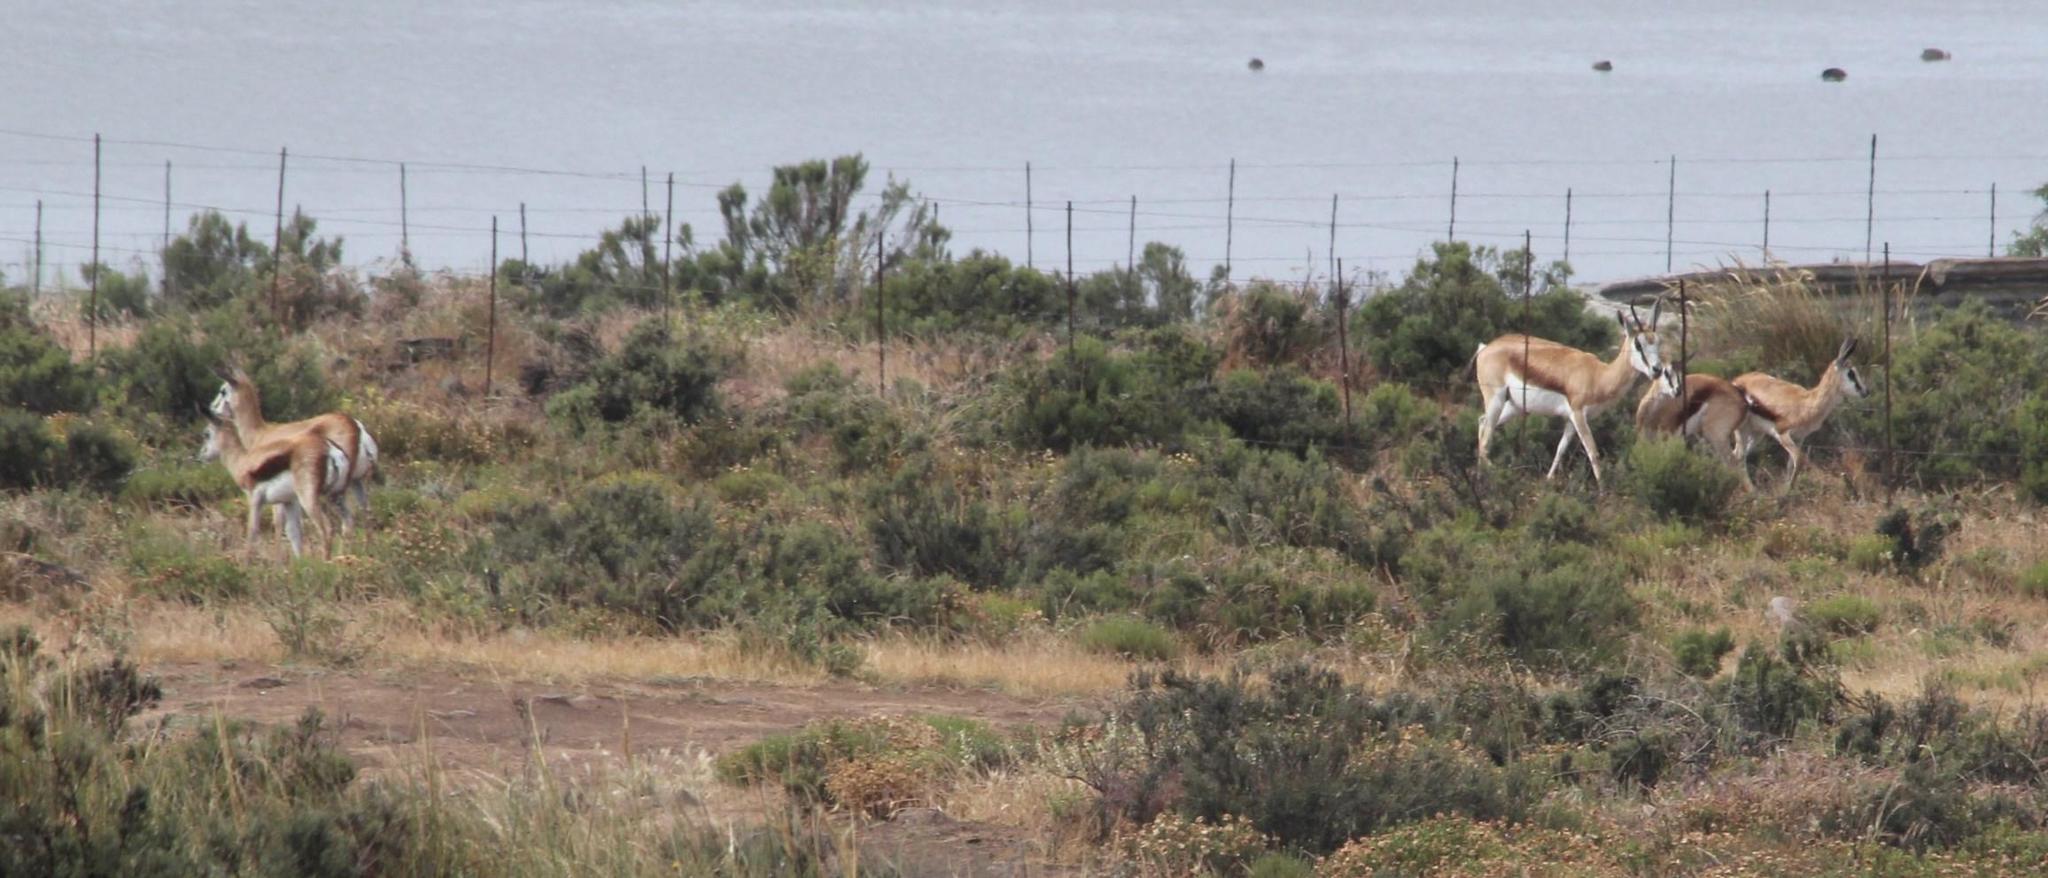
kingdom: Animalia
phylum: Chordata
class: Mammalia
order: Artiodactyla
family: Bovidae
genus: Antidorcas
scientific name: Antidorcas marsupialis
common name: Springbok
